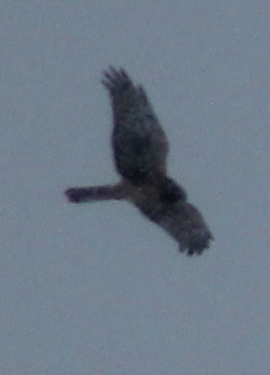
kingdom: Animalia
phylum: Chordata
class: Aves
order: Accipitriformes
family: Accipitridae
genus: Circus
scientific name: Circus cyaneus
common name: Hen harrier
